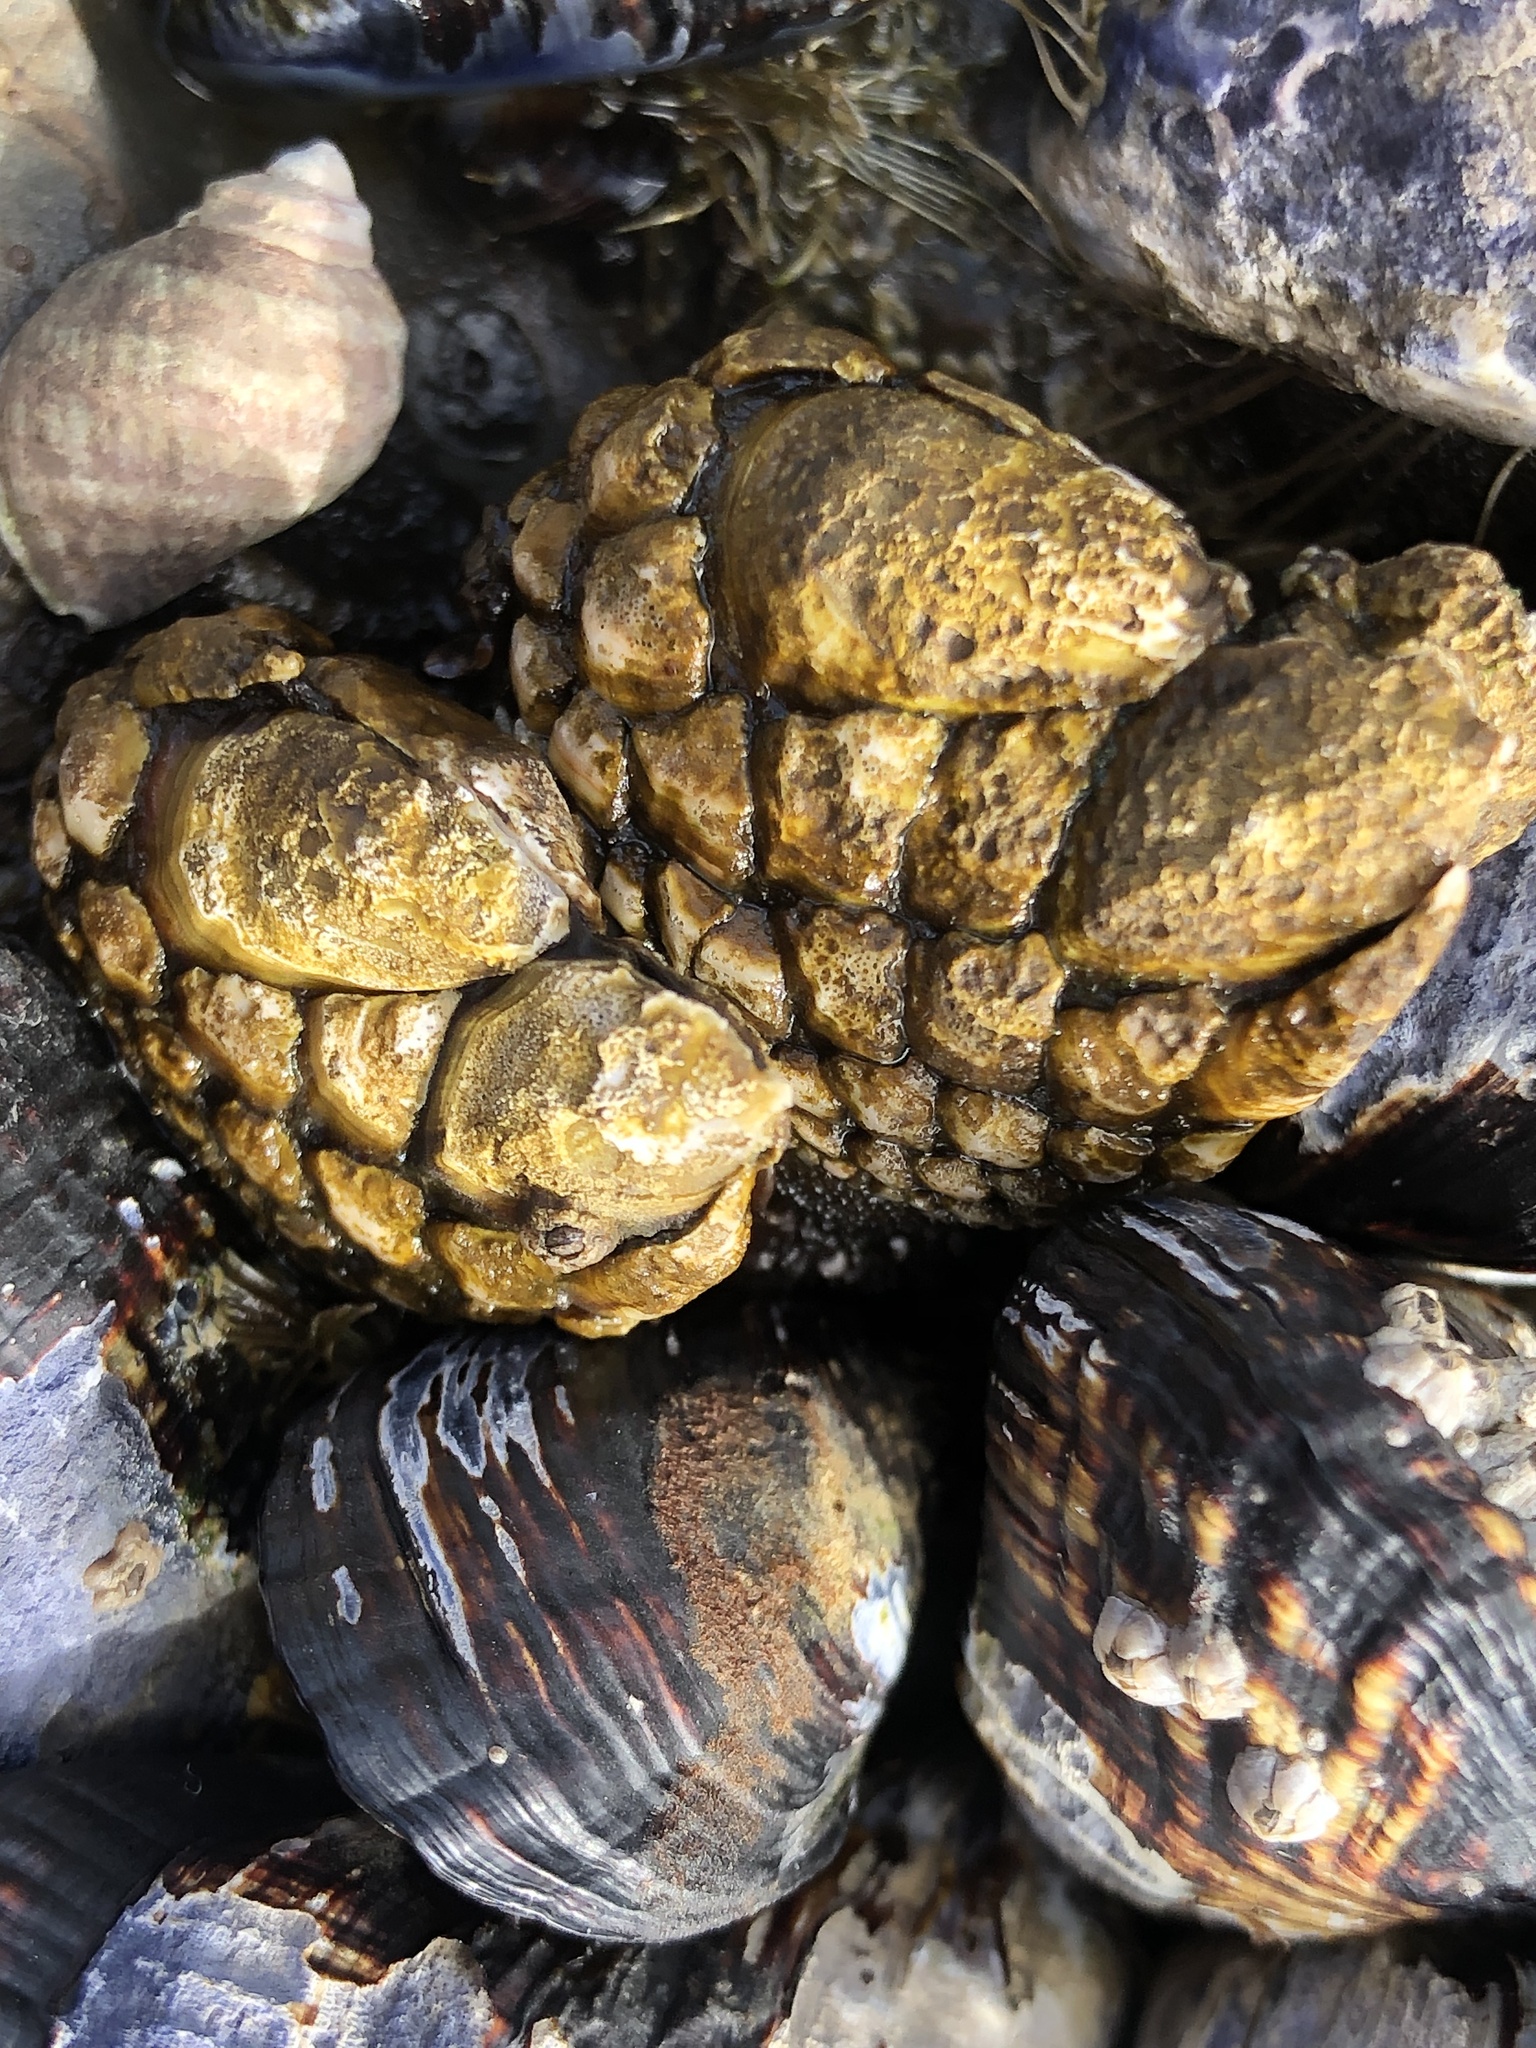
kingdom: Animalia
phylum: Arthropoda
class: Maxillopoda
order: Pedunculata
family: Pollicipedidae
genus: Pollicipes
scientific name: Pollicipes polymerus
